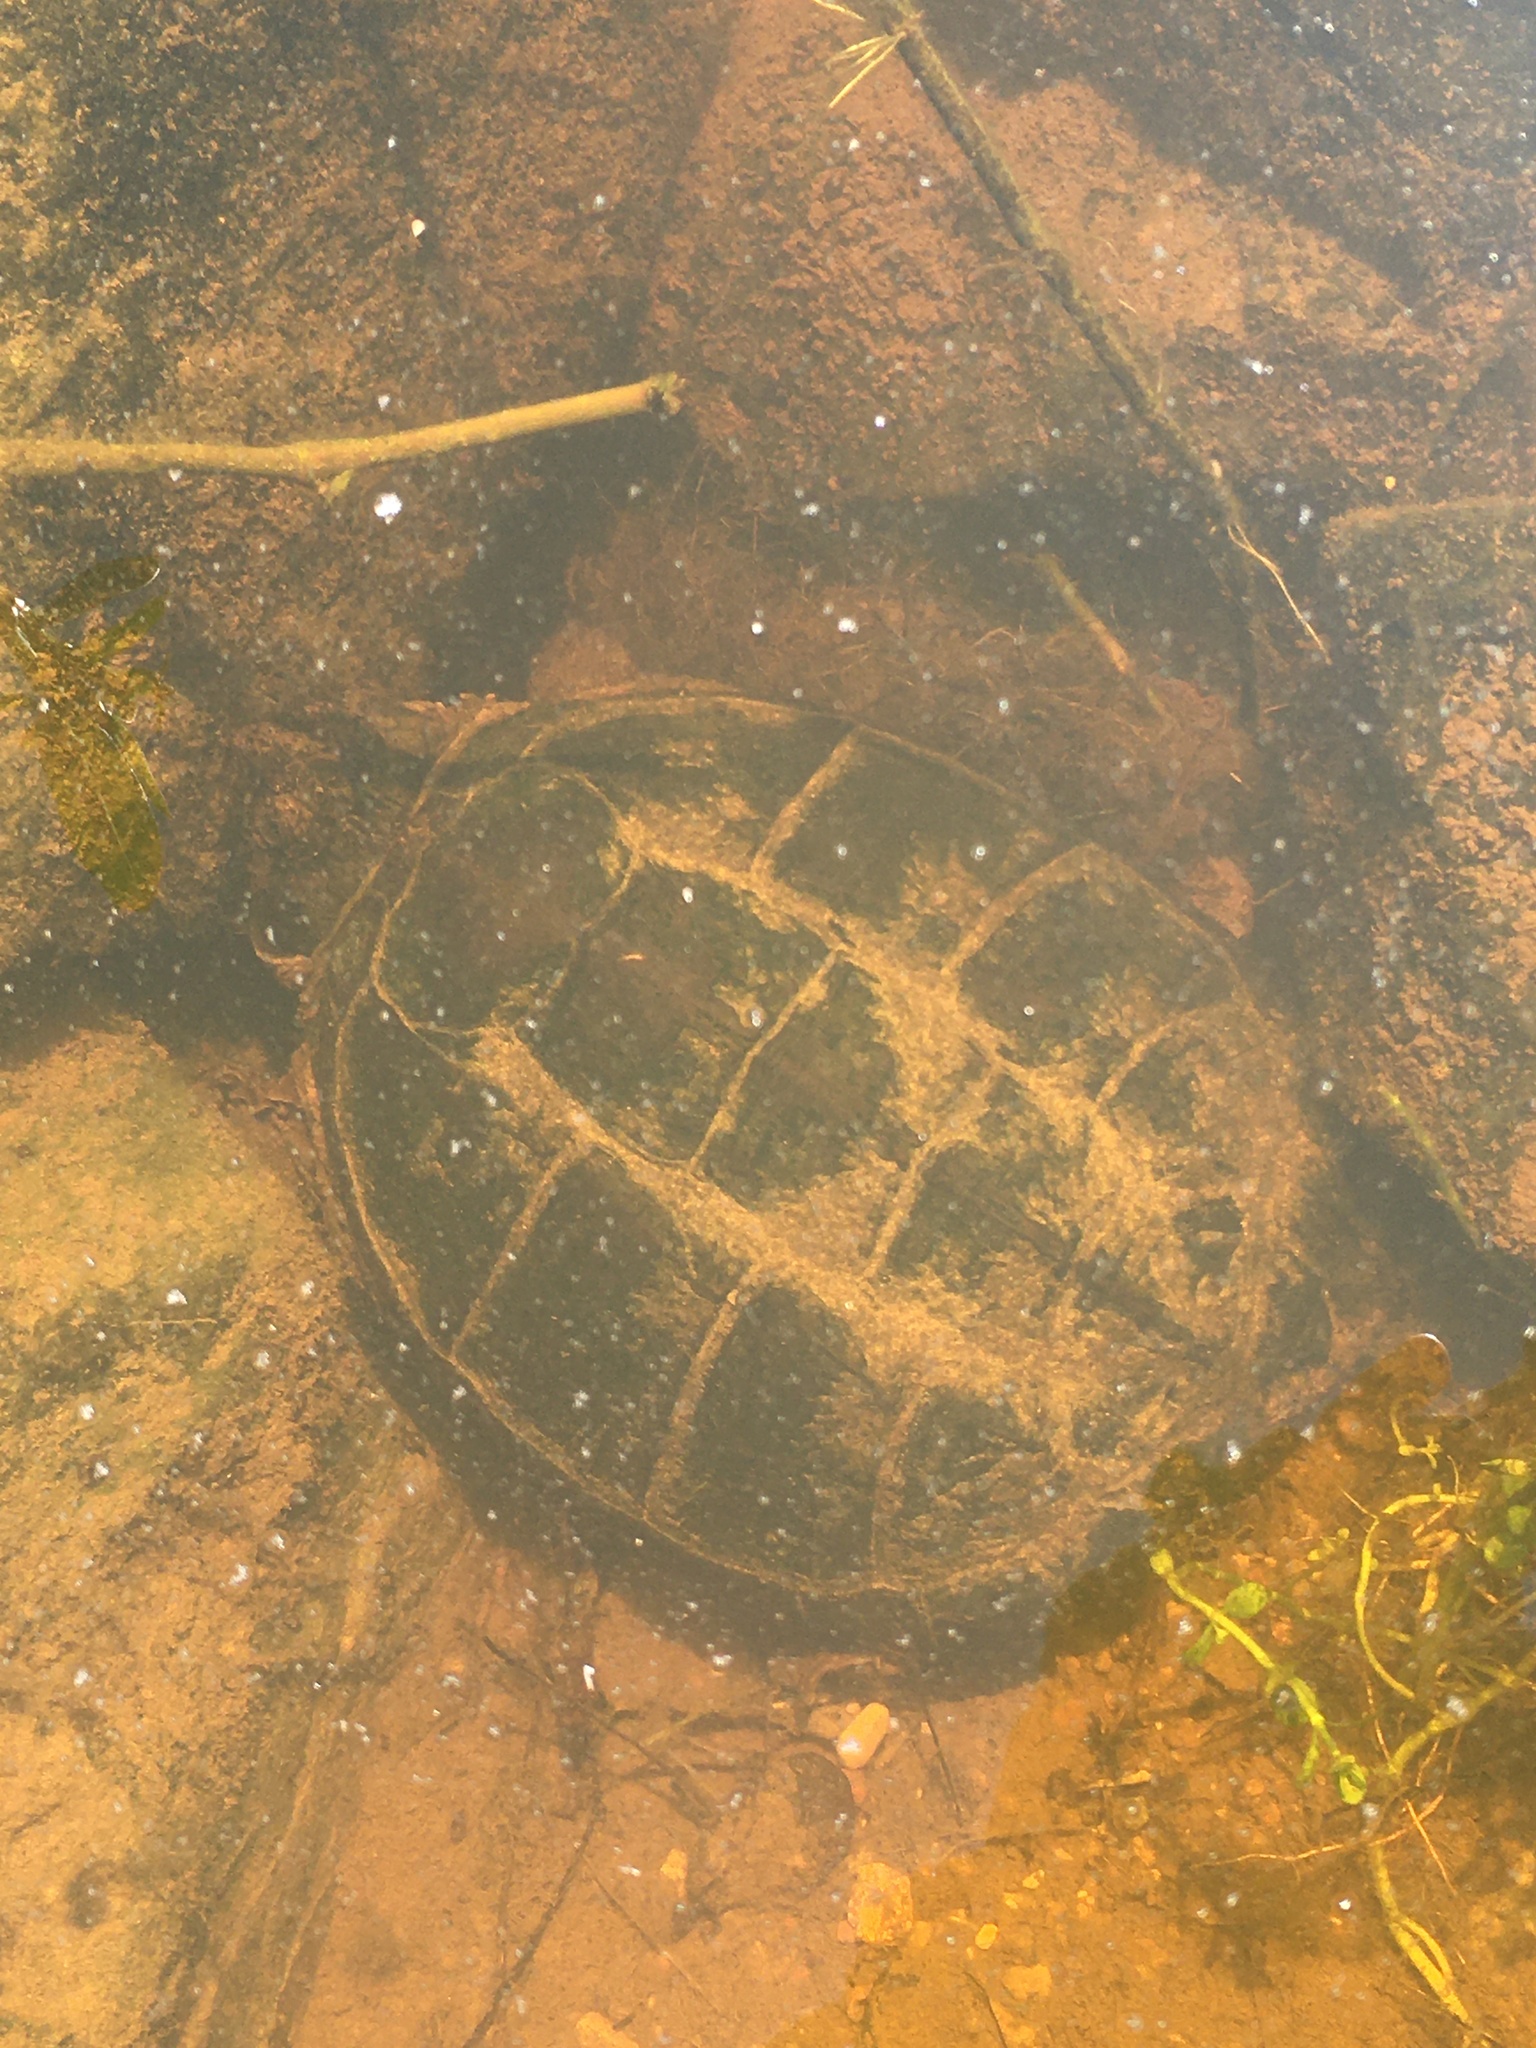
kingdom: Animalia
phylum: Chordata
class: Testudines
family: Chelydridae
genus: Chelydra
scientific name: Chelydra serpentina
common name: Common snapping turtle
